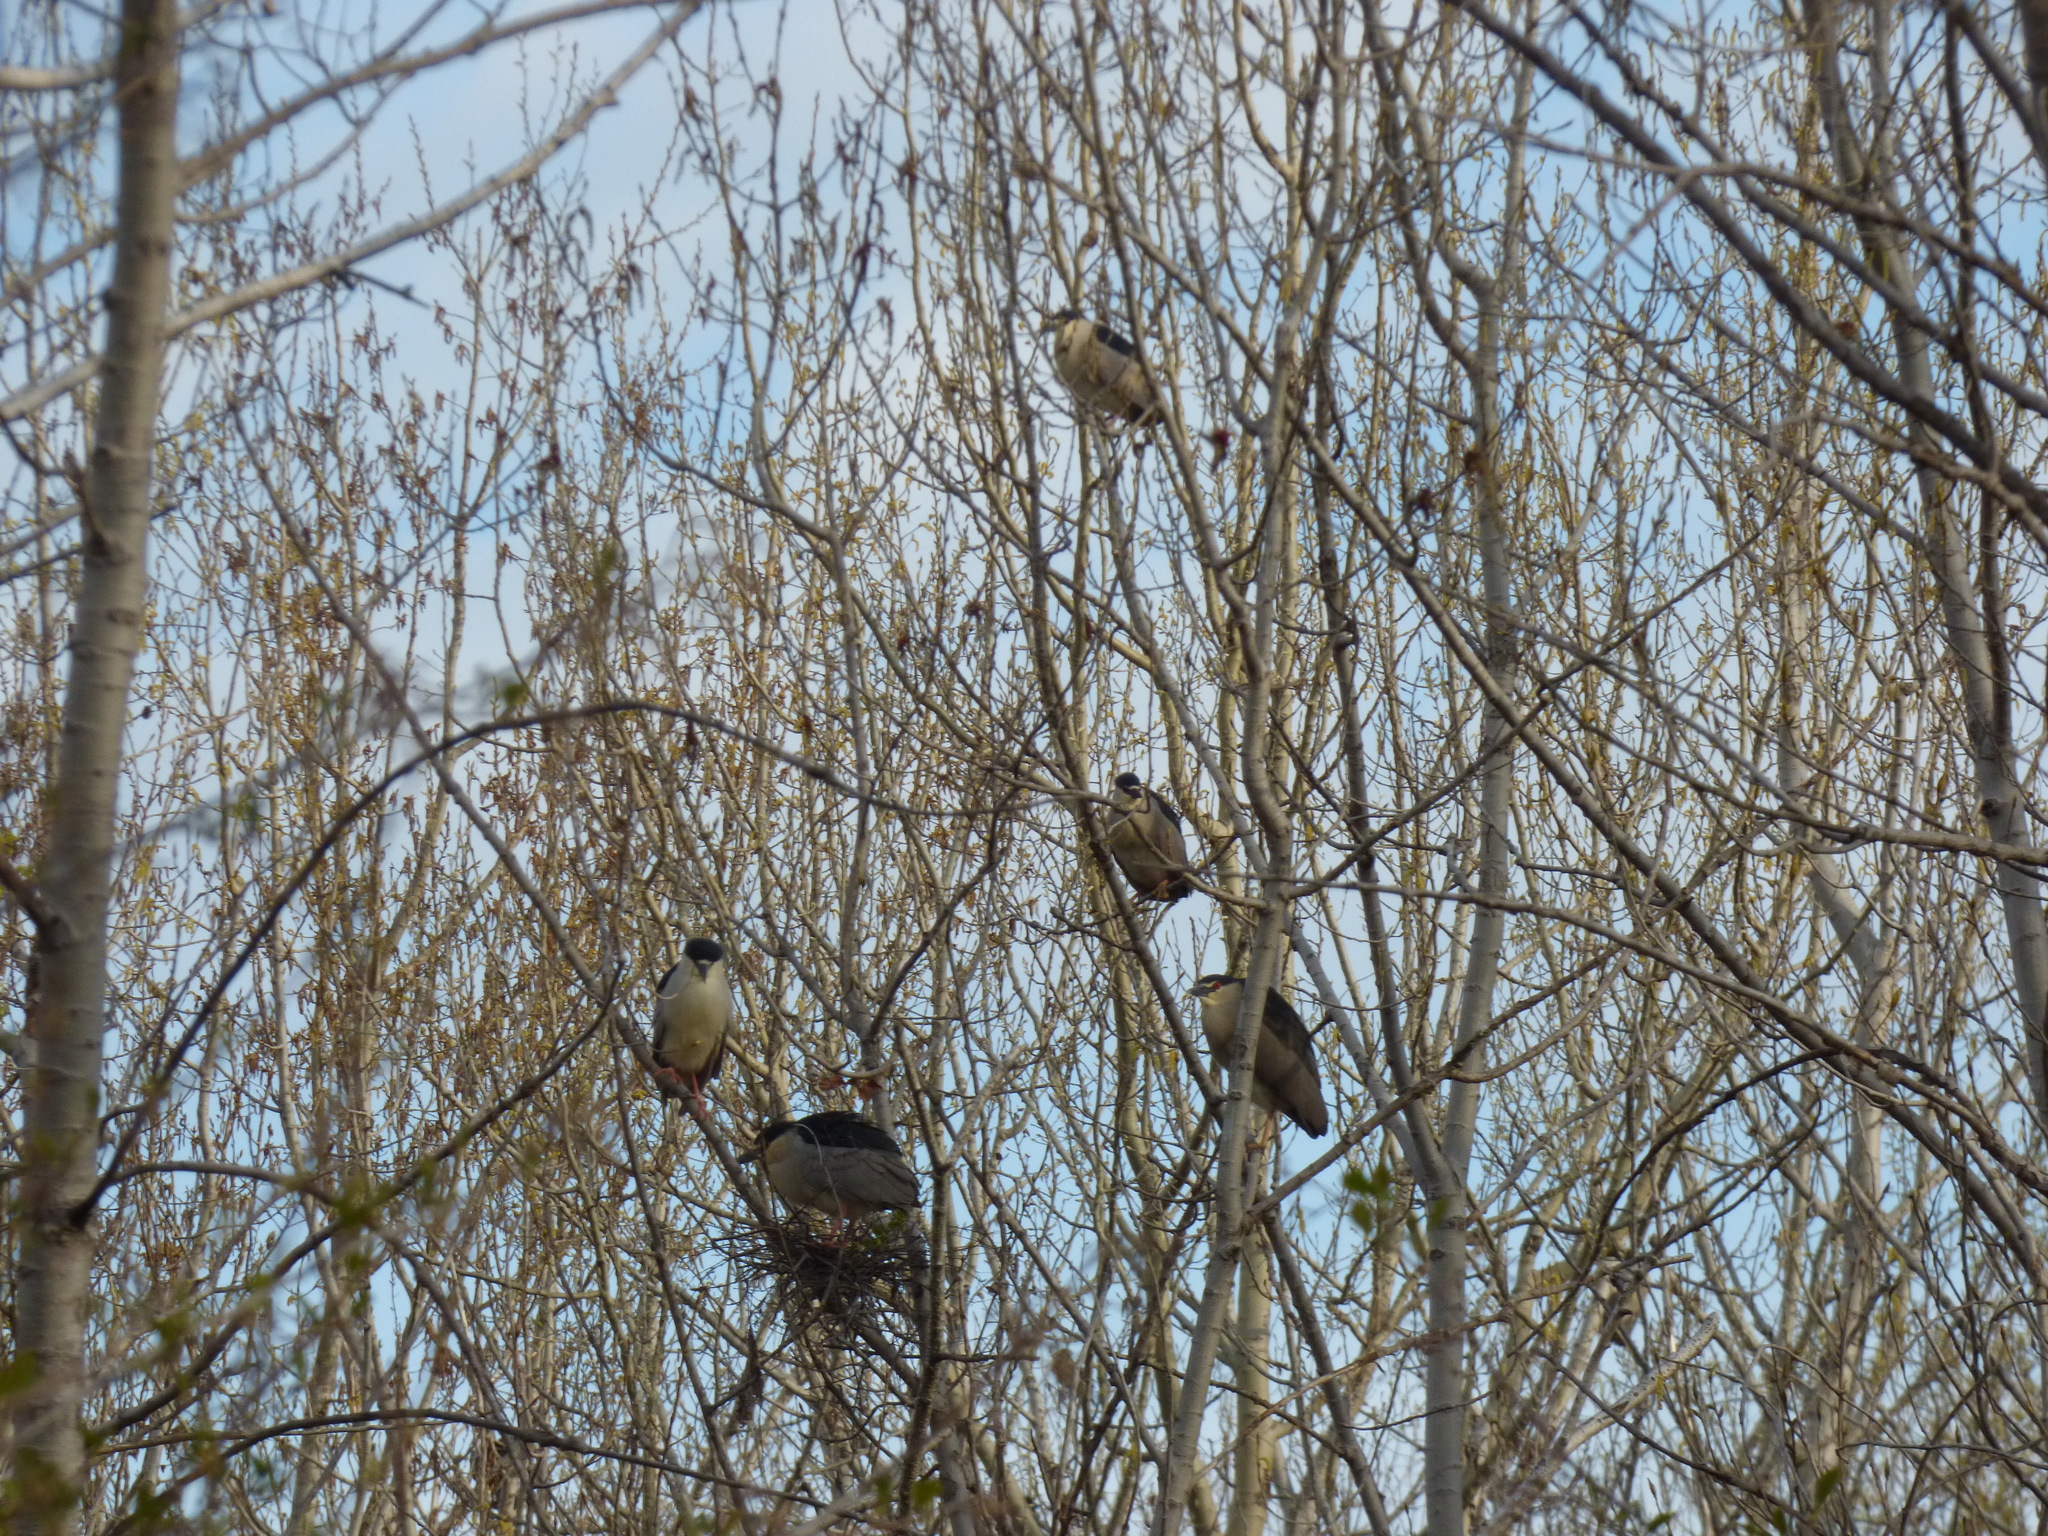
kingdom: Animalia
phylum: Chordata
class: Aves
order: Pelecaniformes
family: Ardeidae
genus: Nycticorax
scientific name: Nycticorax nycticorax
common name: Black-crowned night heron
